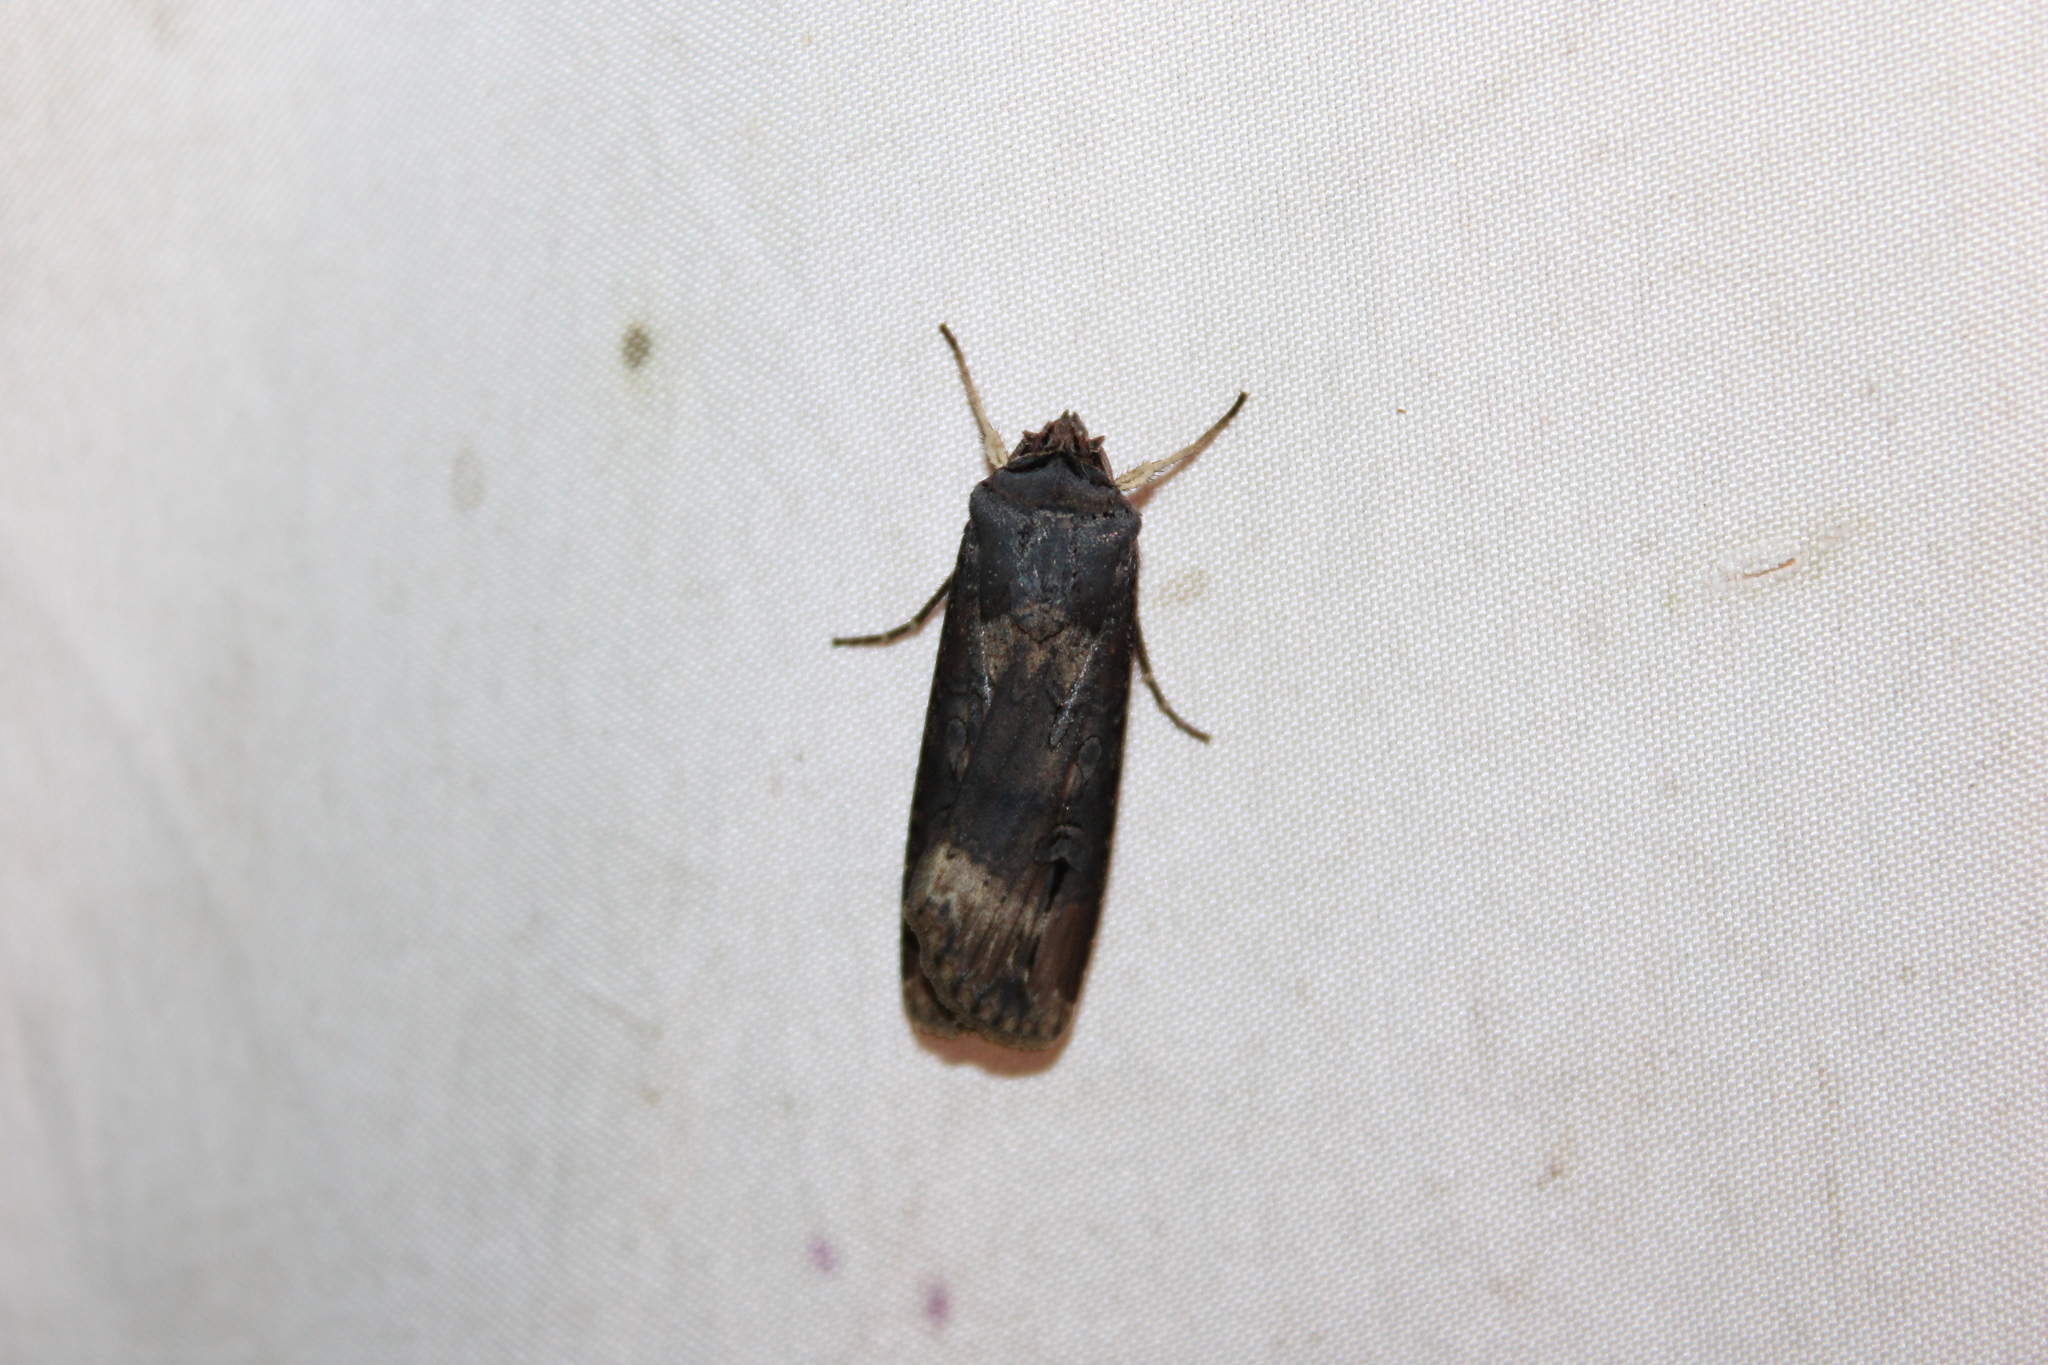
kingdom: Animalia
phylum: Arthropoda
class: Insecta
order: Lepidoptera
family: Noctuidae
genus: Agrotis
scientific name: Agrotis ipsilon
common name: Dark sword-grass
